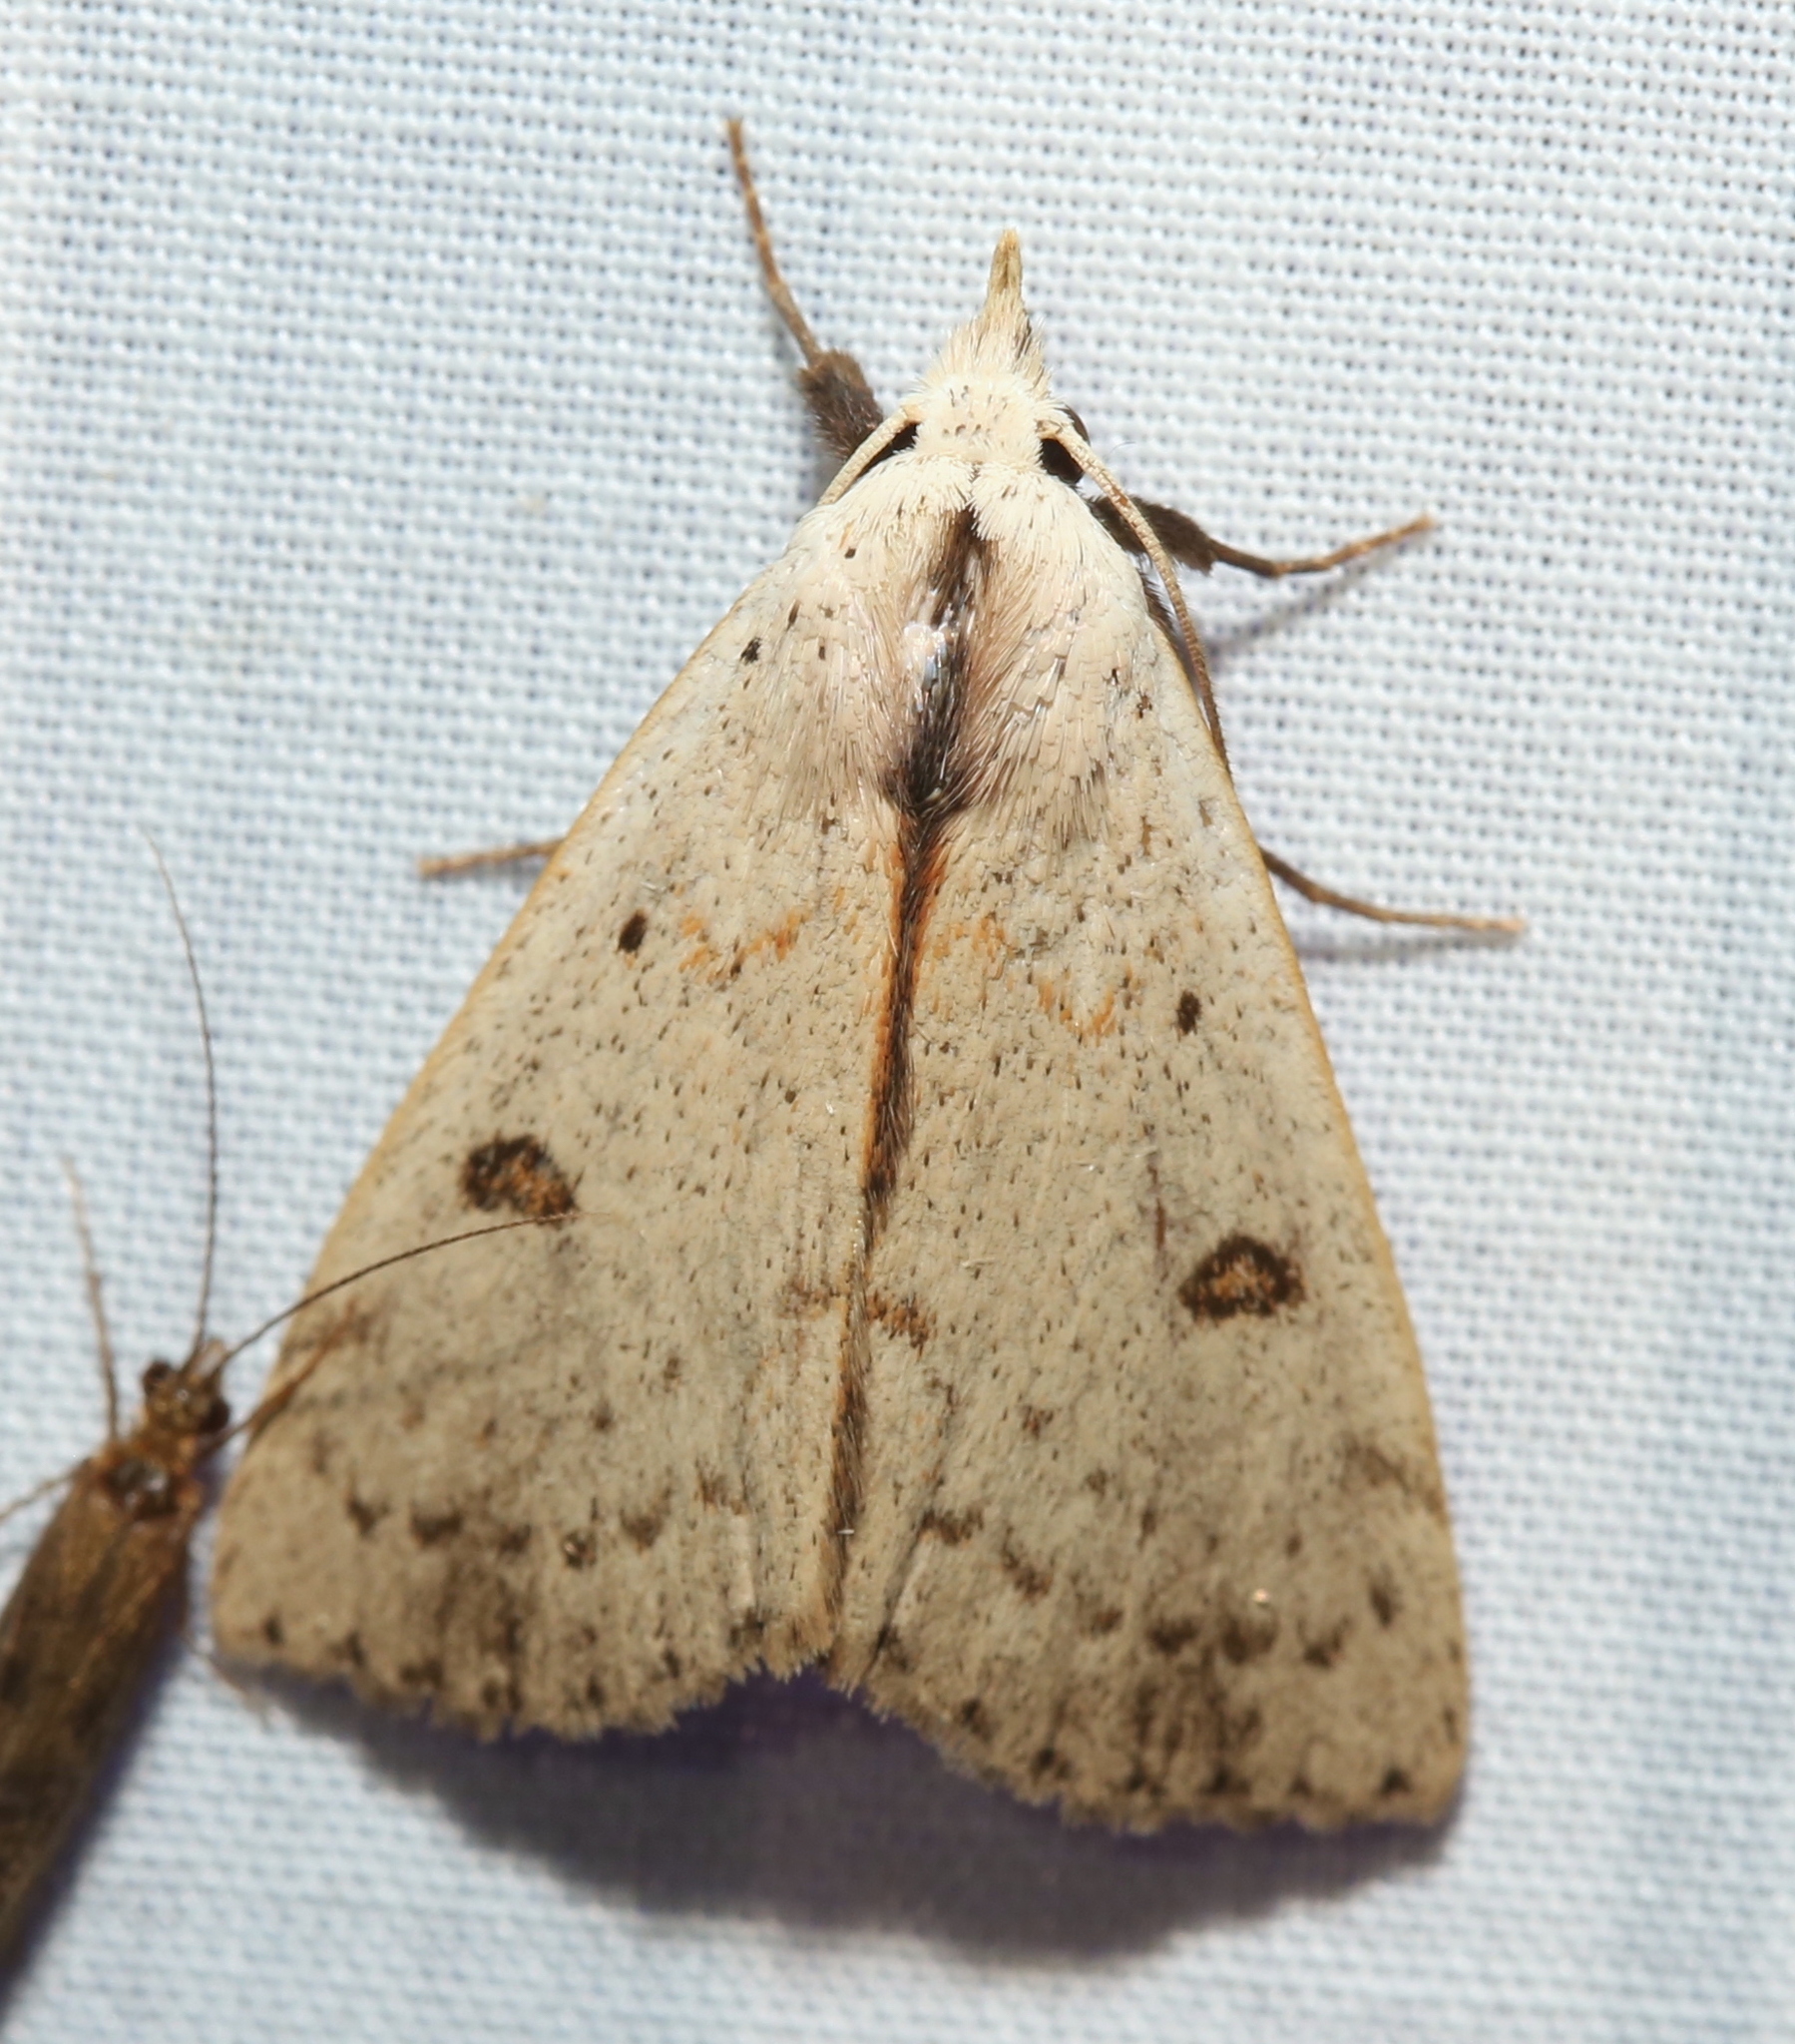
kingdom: Animalia
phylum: Arthropoda
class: Insecta
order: Lepidoptera
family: Erebidae
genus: Scolecocampa
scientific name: Scolecocampa liburna
